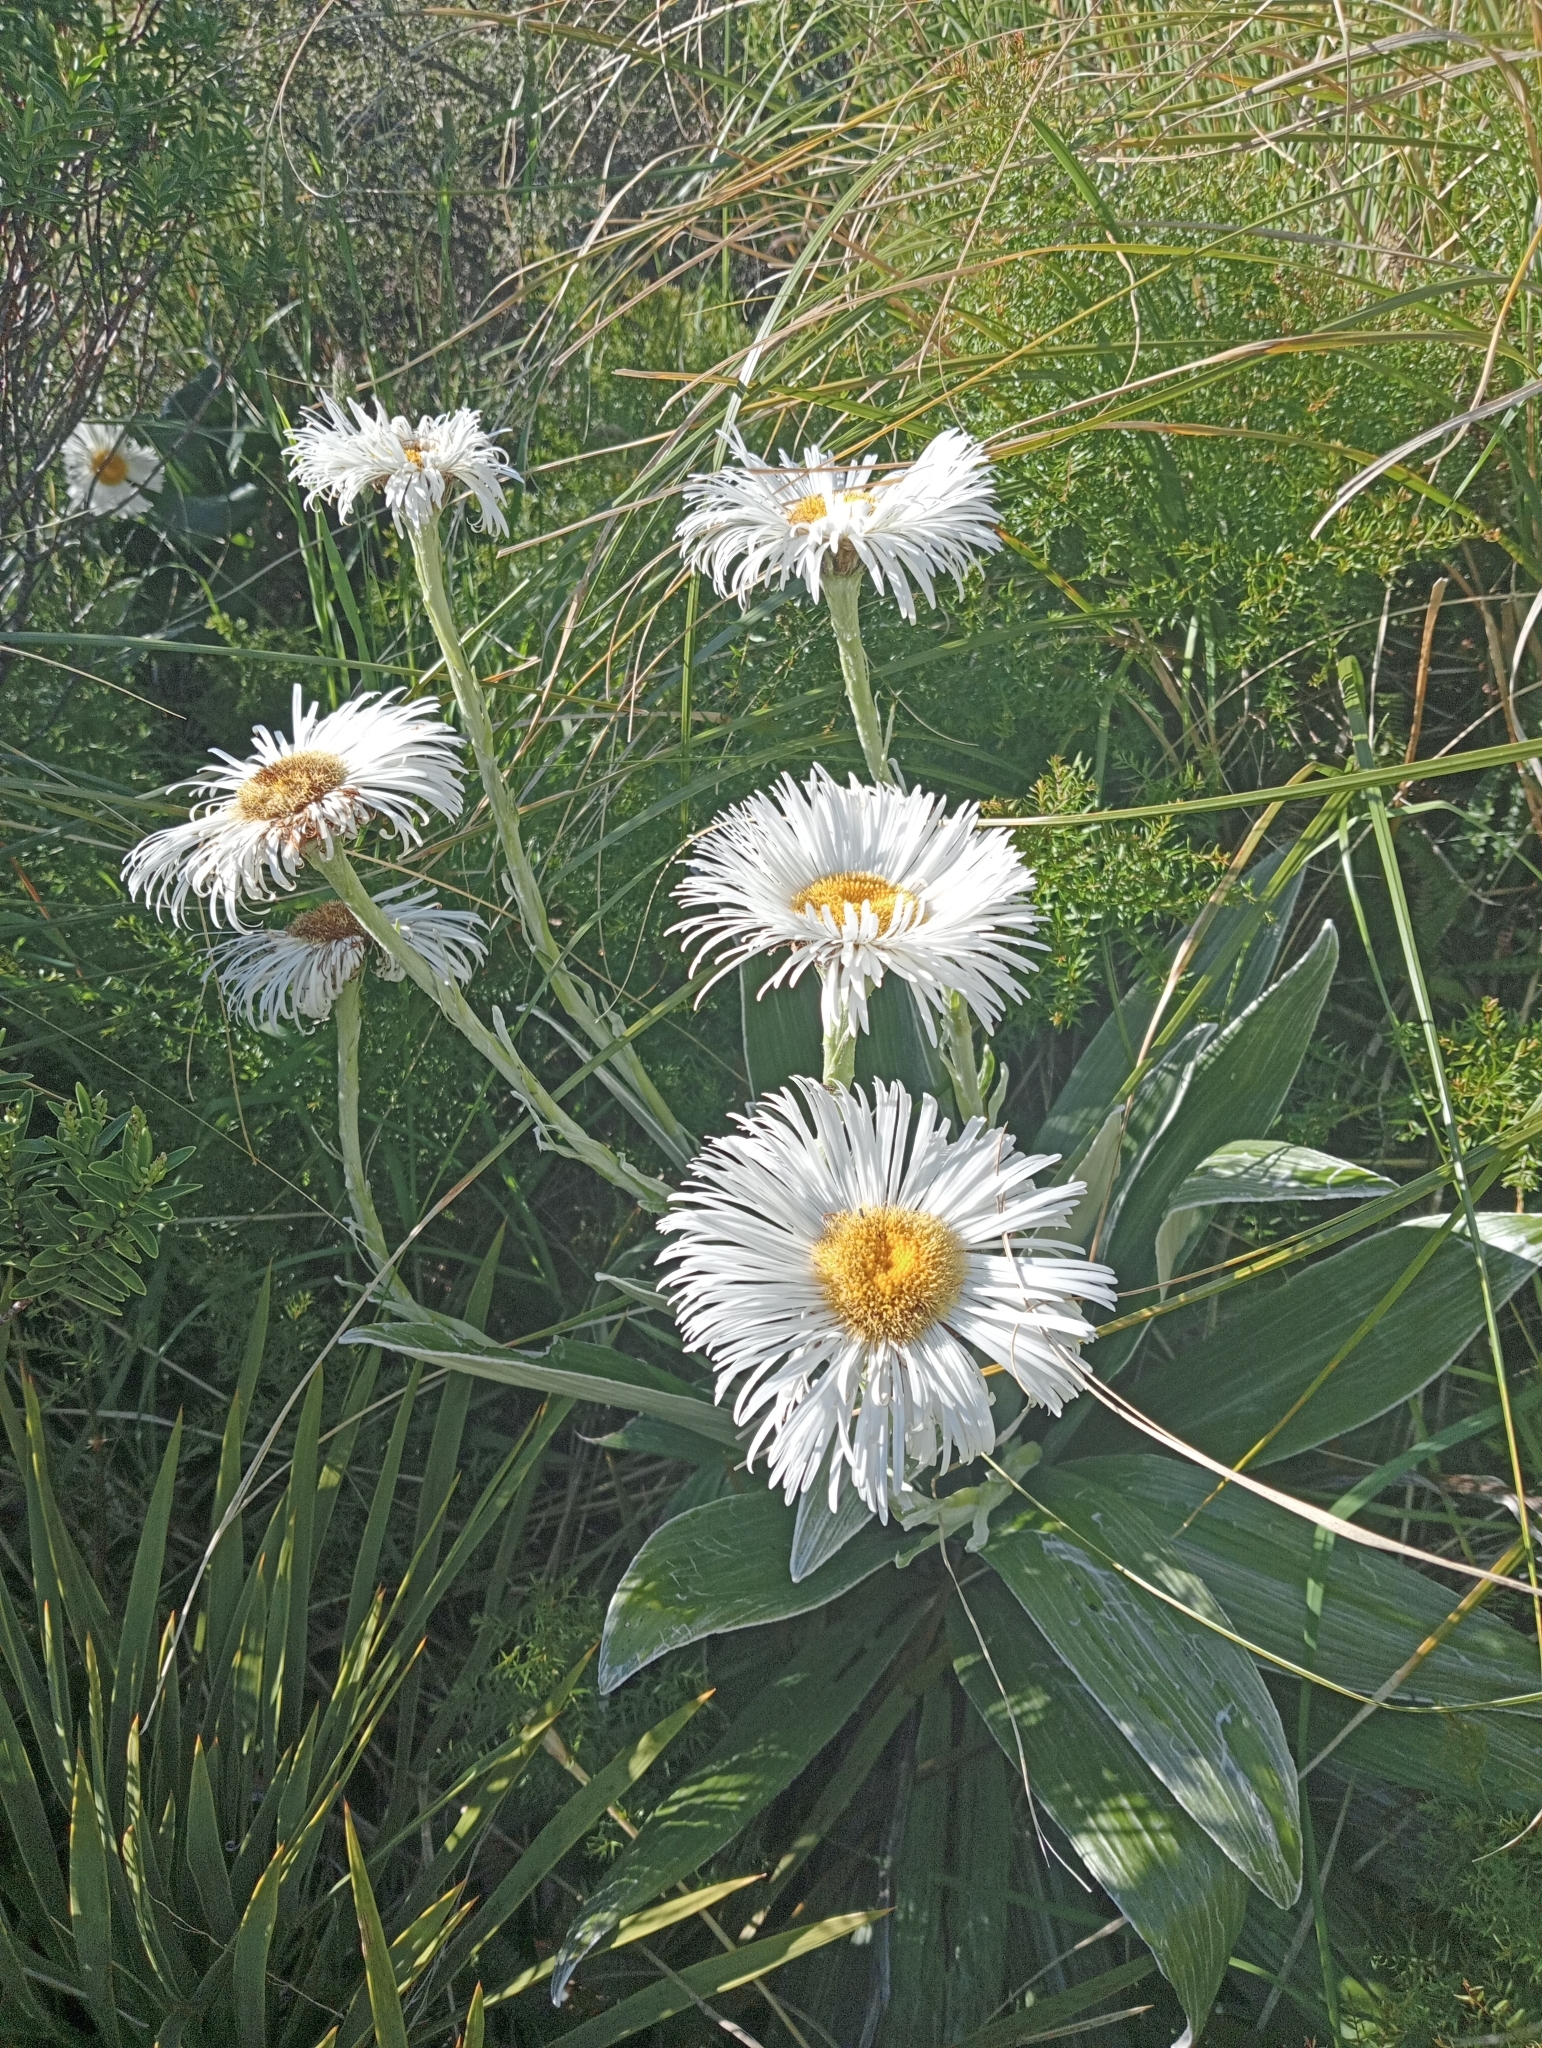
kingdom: Plantae
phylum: Tracheophyta
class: Magnoliopsida
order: Asterales
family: Asteraceae
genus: Celmisia
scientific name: Celmisia semicordata
